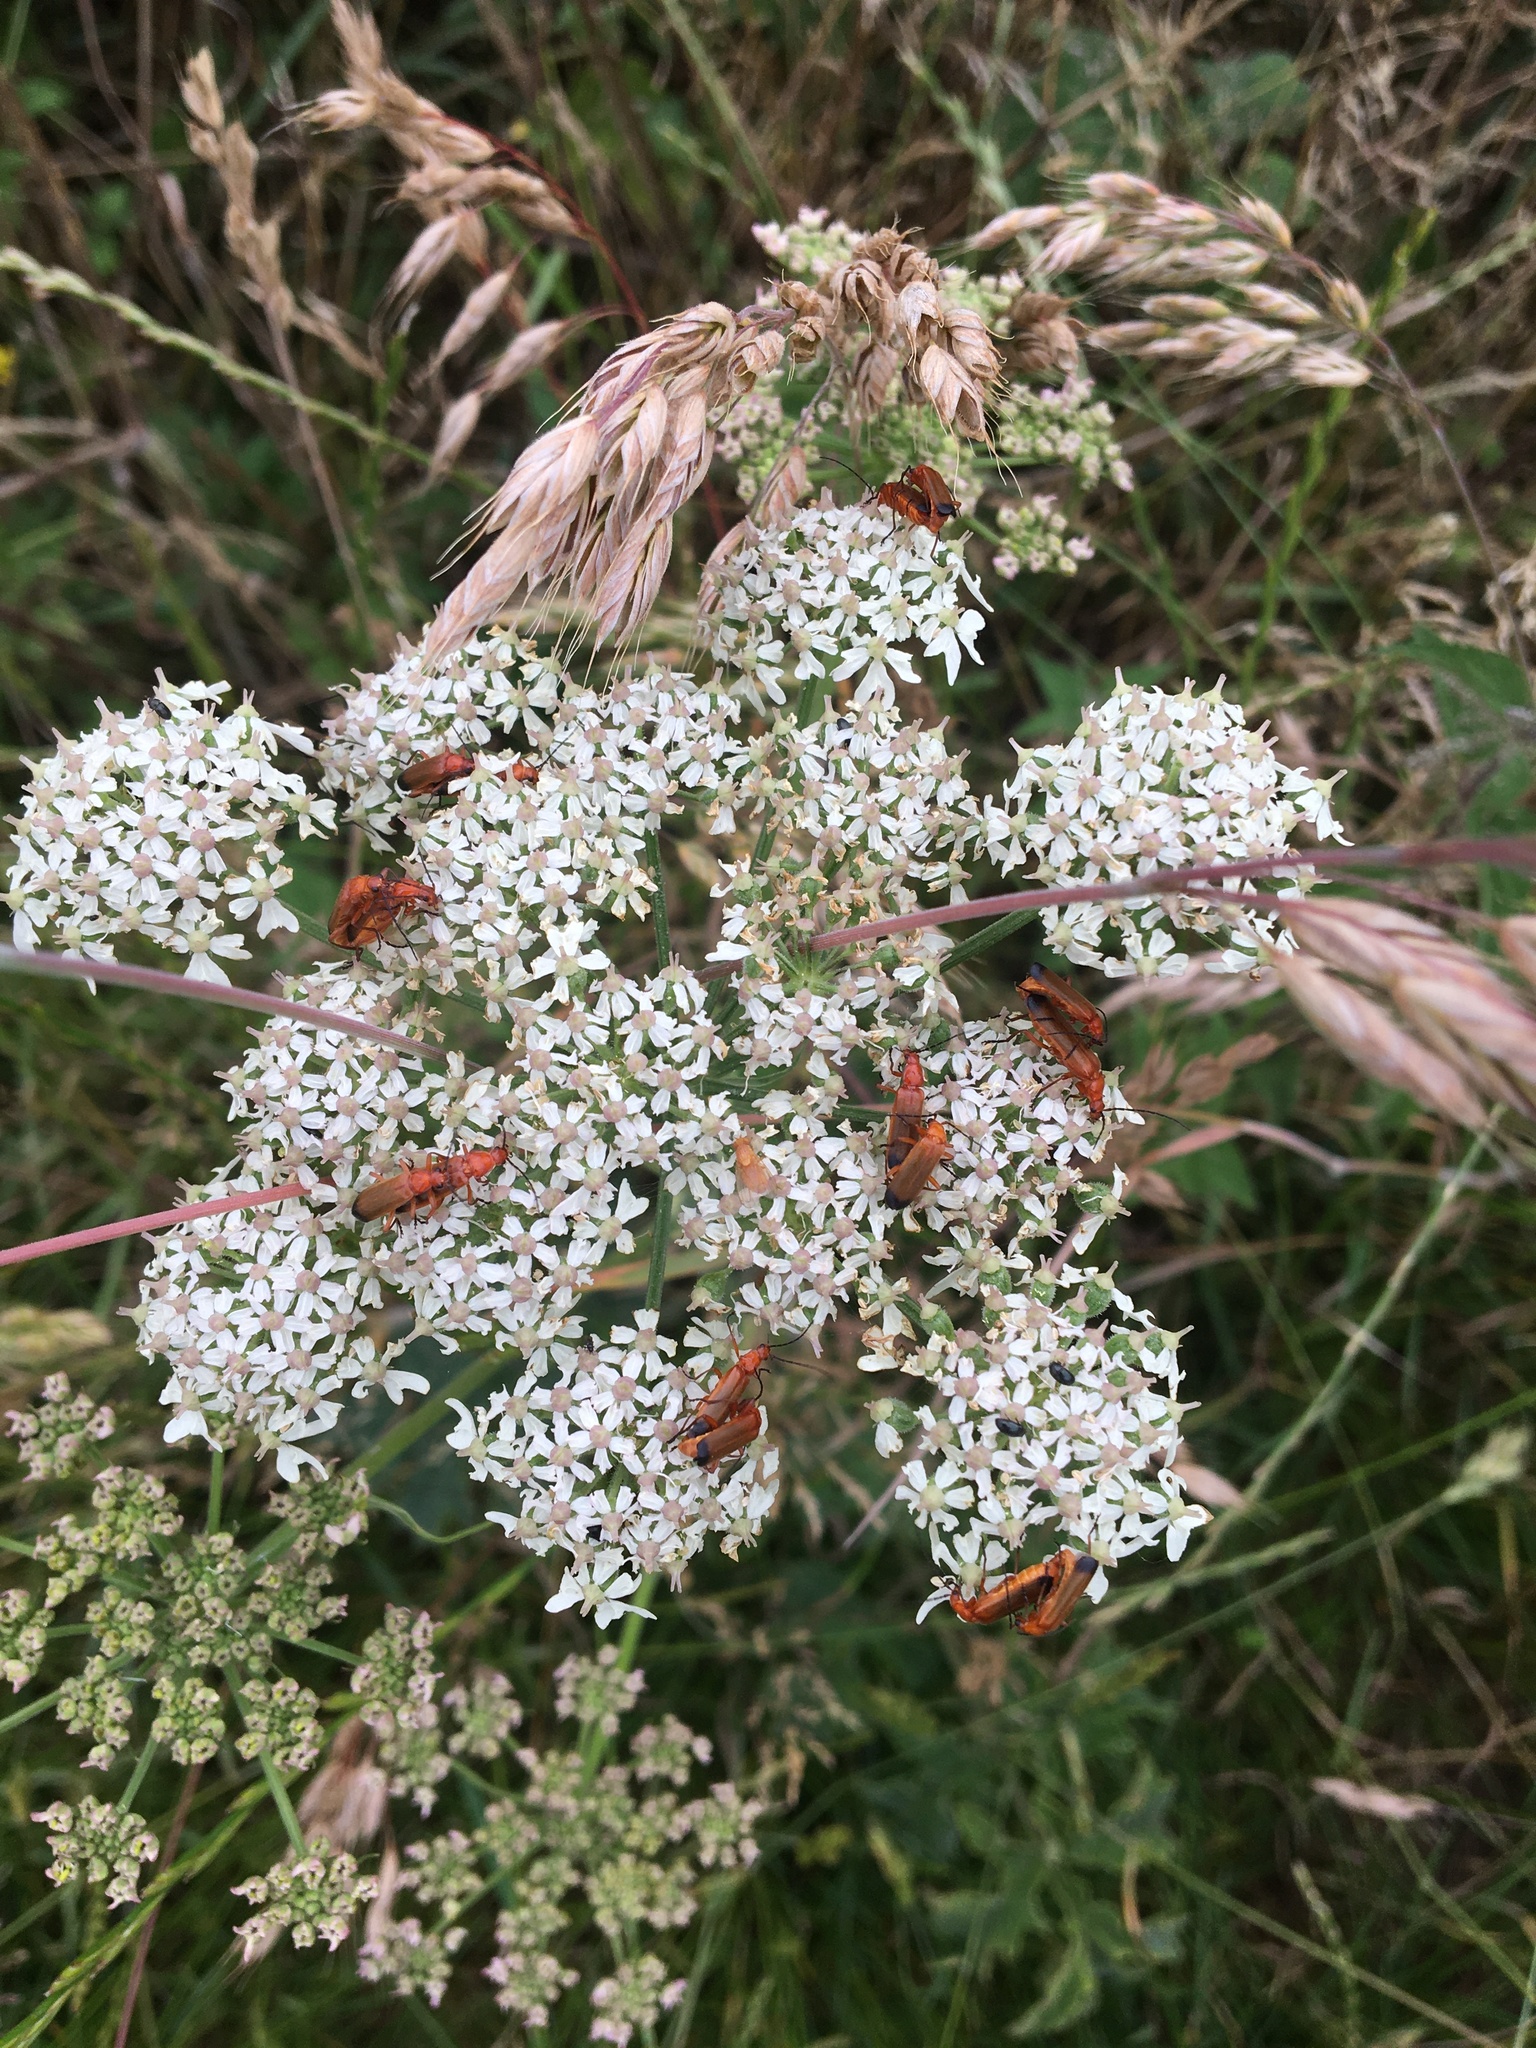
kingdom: Animalia
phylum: Arthropoda
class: Insecta
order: Coleoptera
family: Cantharidae
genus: Rhagonycha
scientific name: Rhagonycha fulva
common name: Common red soldier beetle
